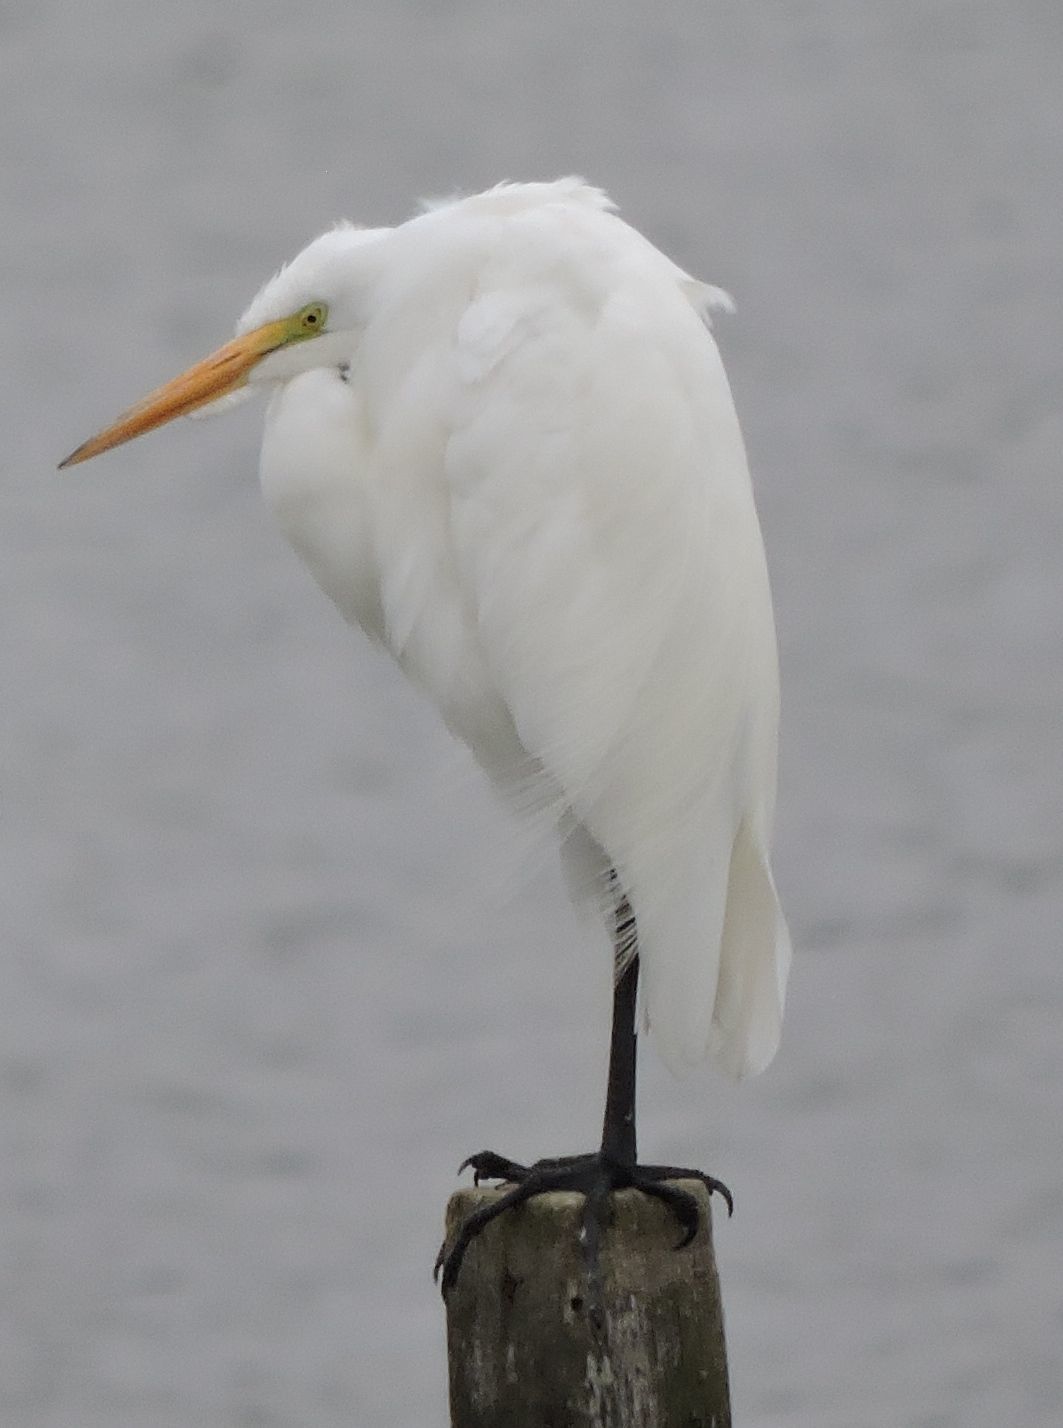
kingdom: Animalia
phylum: Chordata
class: Aves
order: Pelecaniformes
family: Ardeidae
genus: Ardea
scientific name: Ardea alba
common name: Great egret
